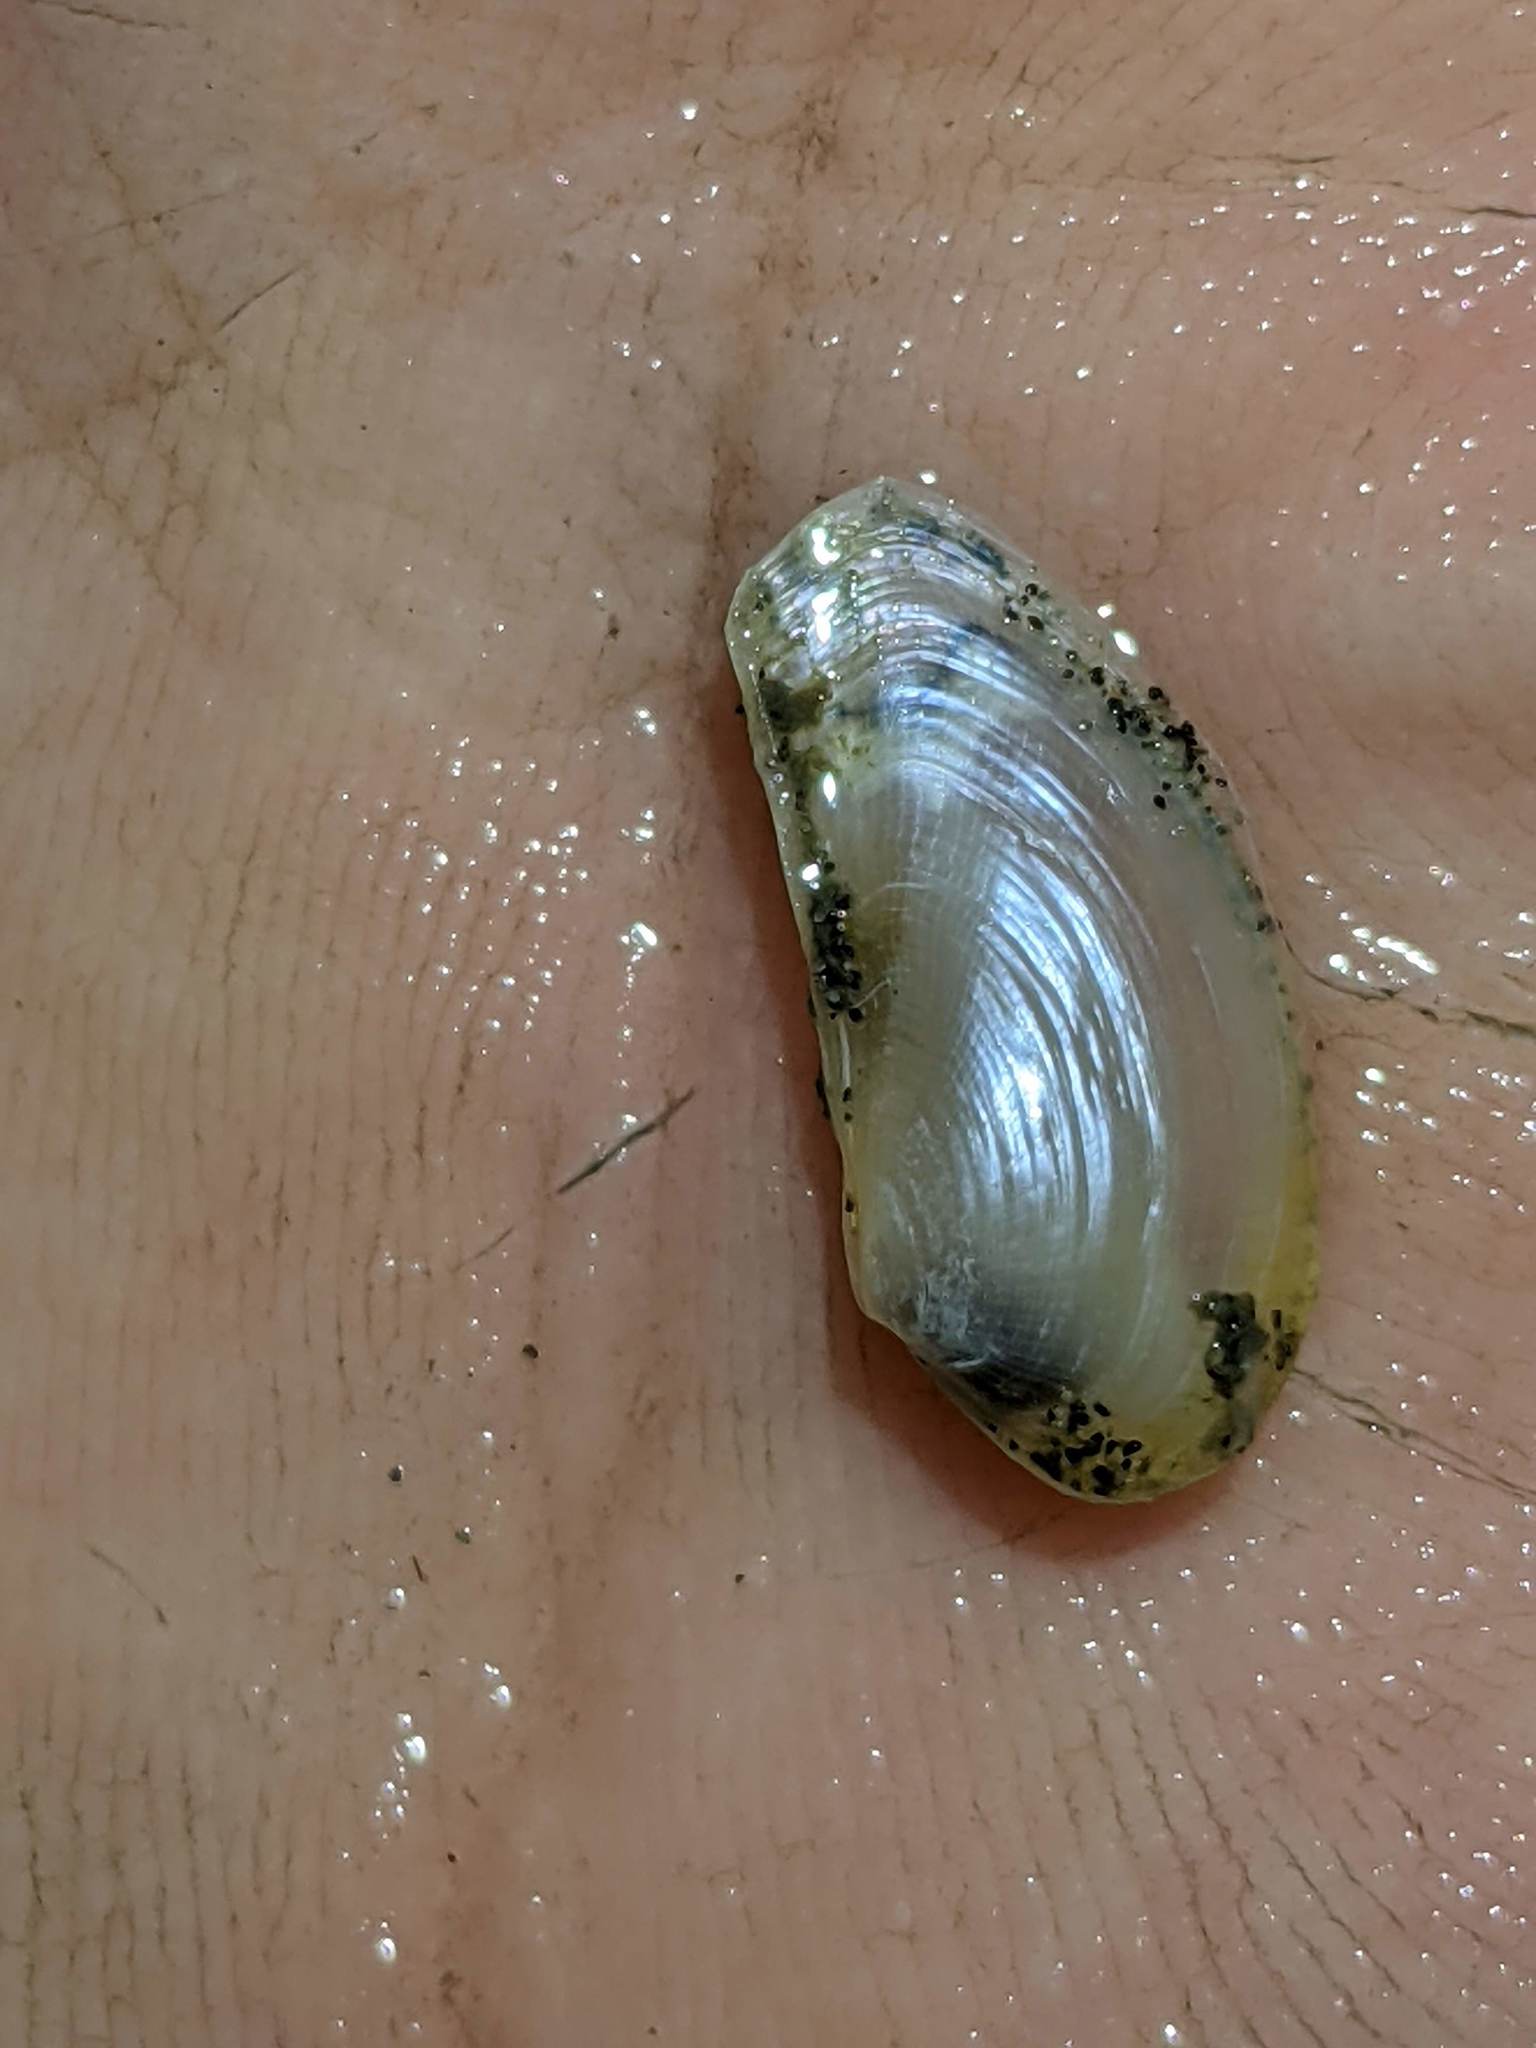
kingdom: Animalia
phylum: Mollusca
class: Bivalvia
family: Lyonsiidae
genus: Lyonsia
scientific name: Lyonsia californica
